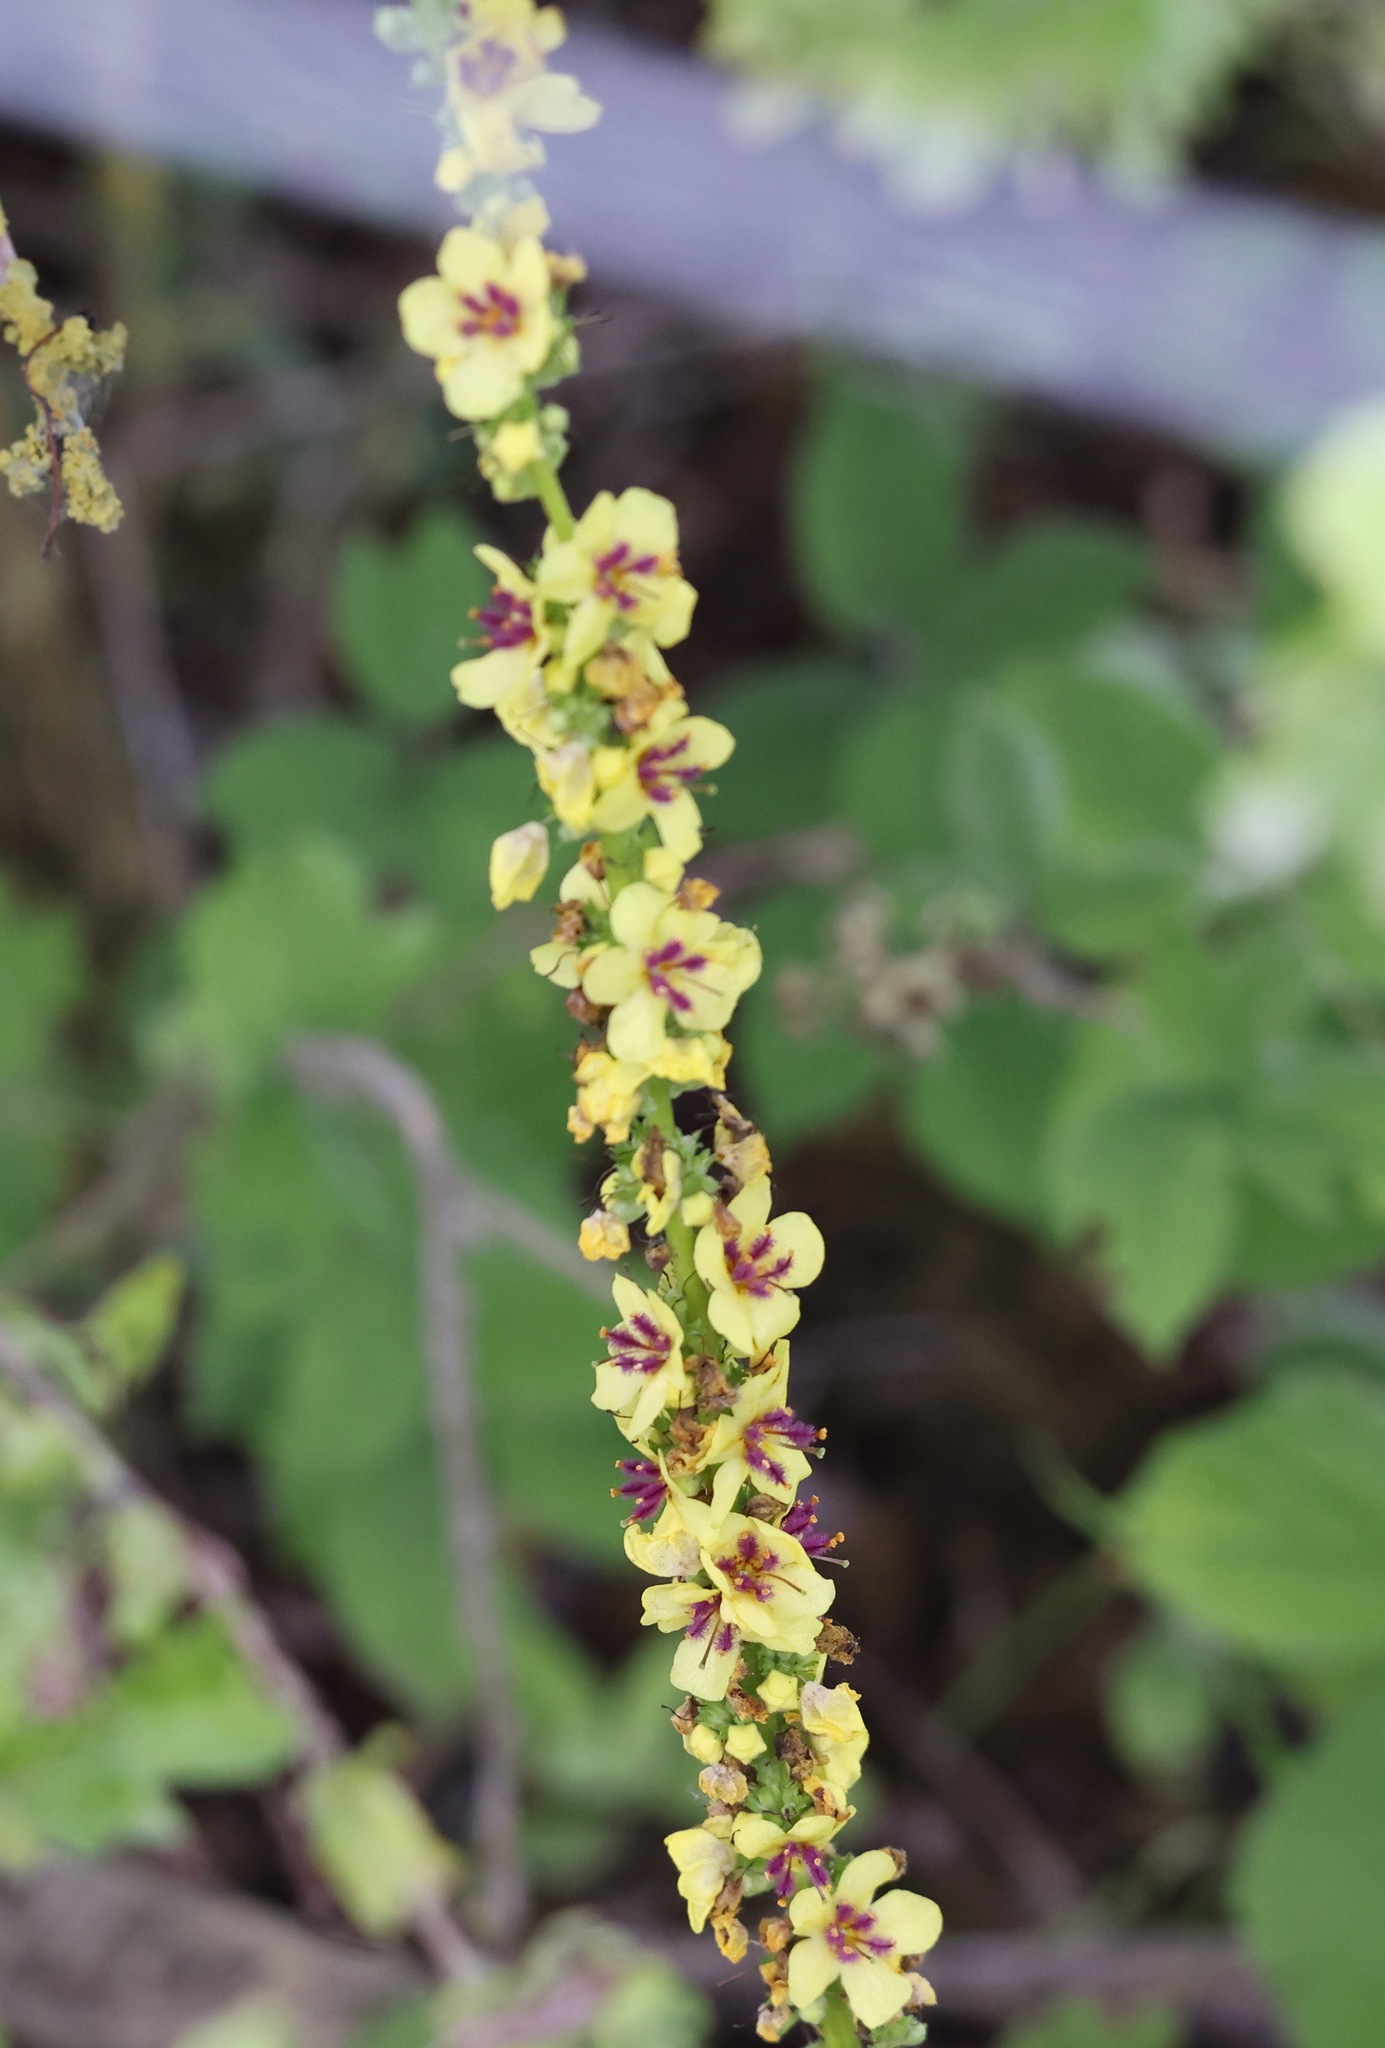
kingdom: Plantae
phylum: Tracheophyta
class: Magnoliopsida
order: Lamiales
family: Scrophulariaceae
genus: Verbascum
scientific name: Verbascum nigrum
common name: Dark mullein
